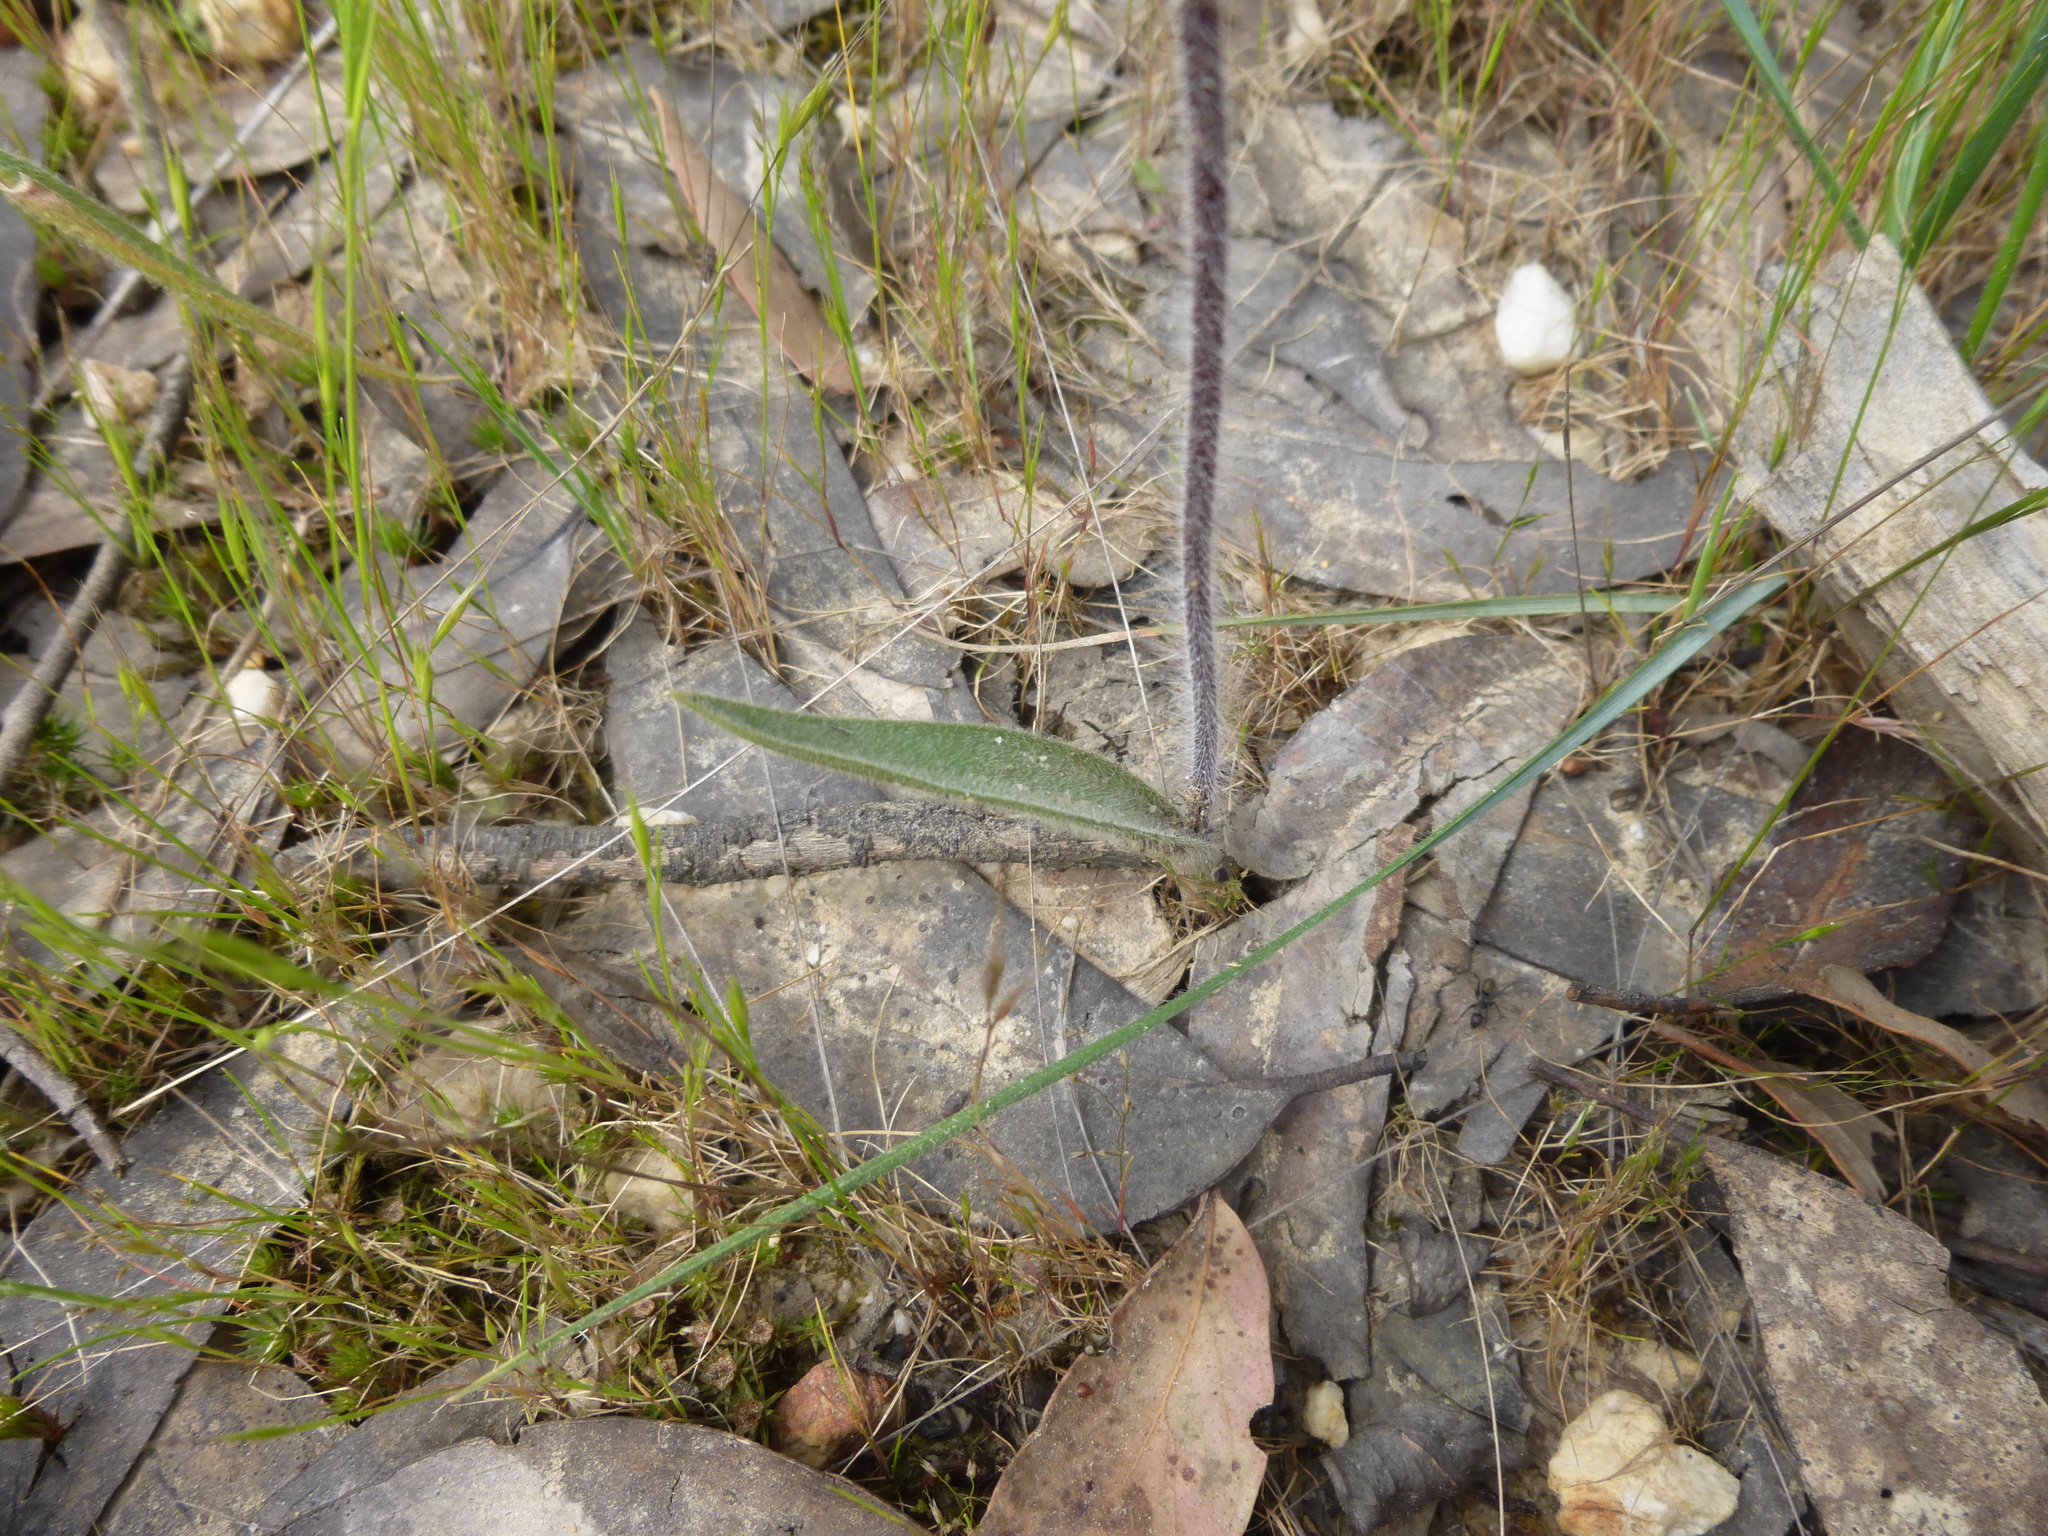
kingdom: Plantae
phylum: Tracheophyta
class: Liliopsida
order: Asparagales
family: Orchidaceae
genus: Caladenia
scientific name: Caladenia tentaculata
